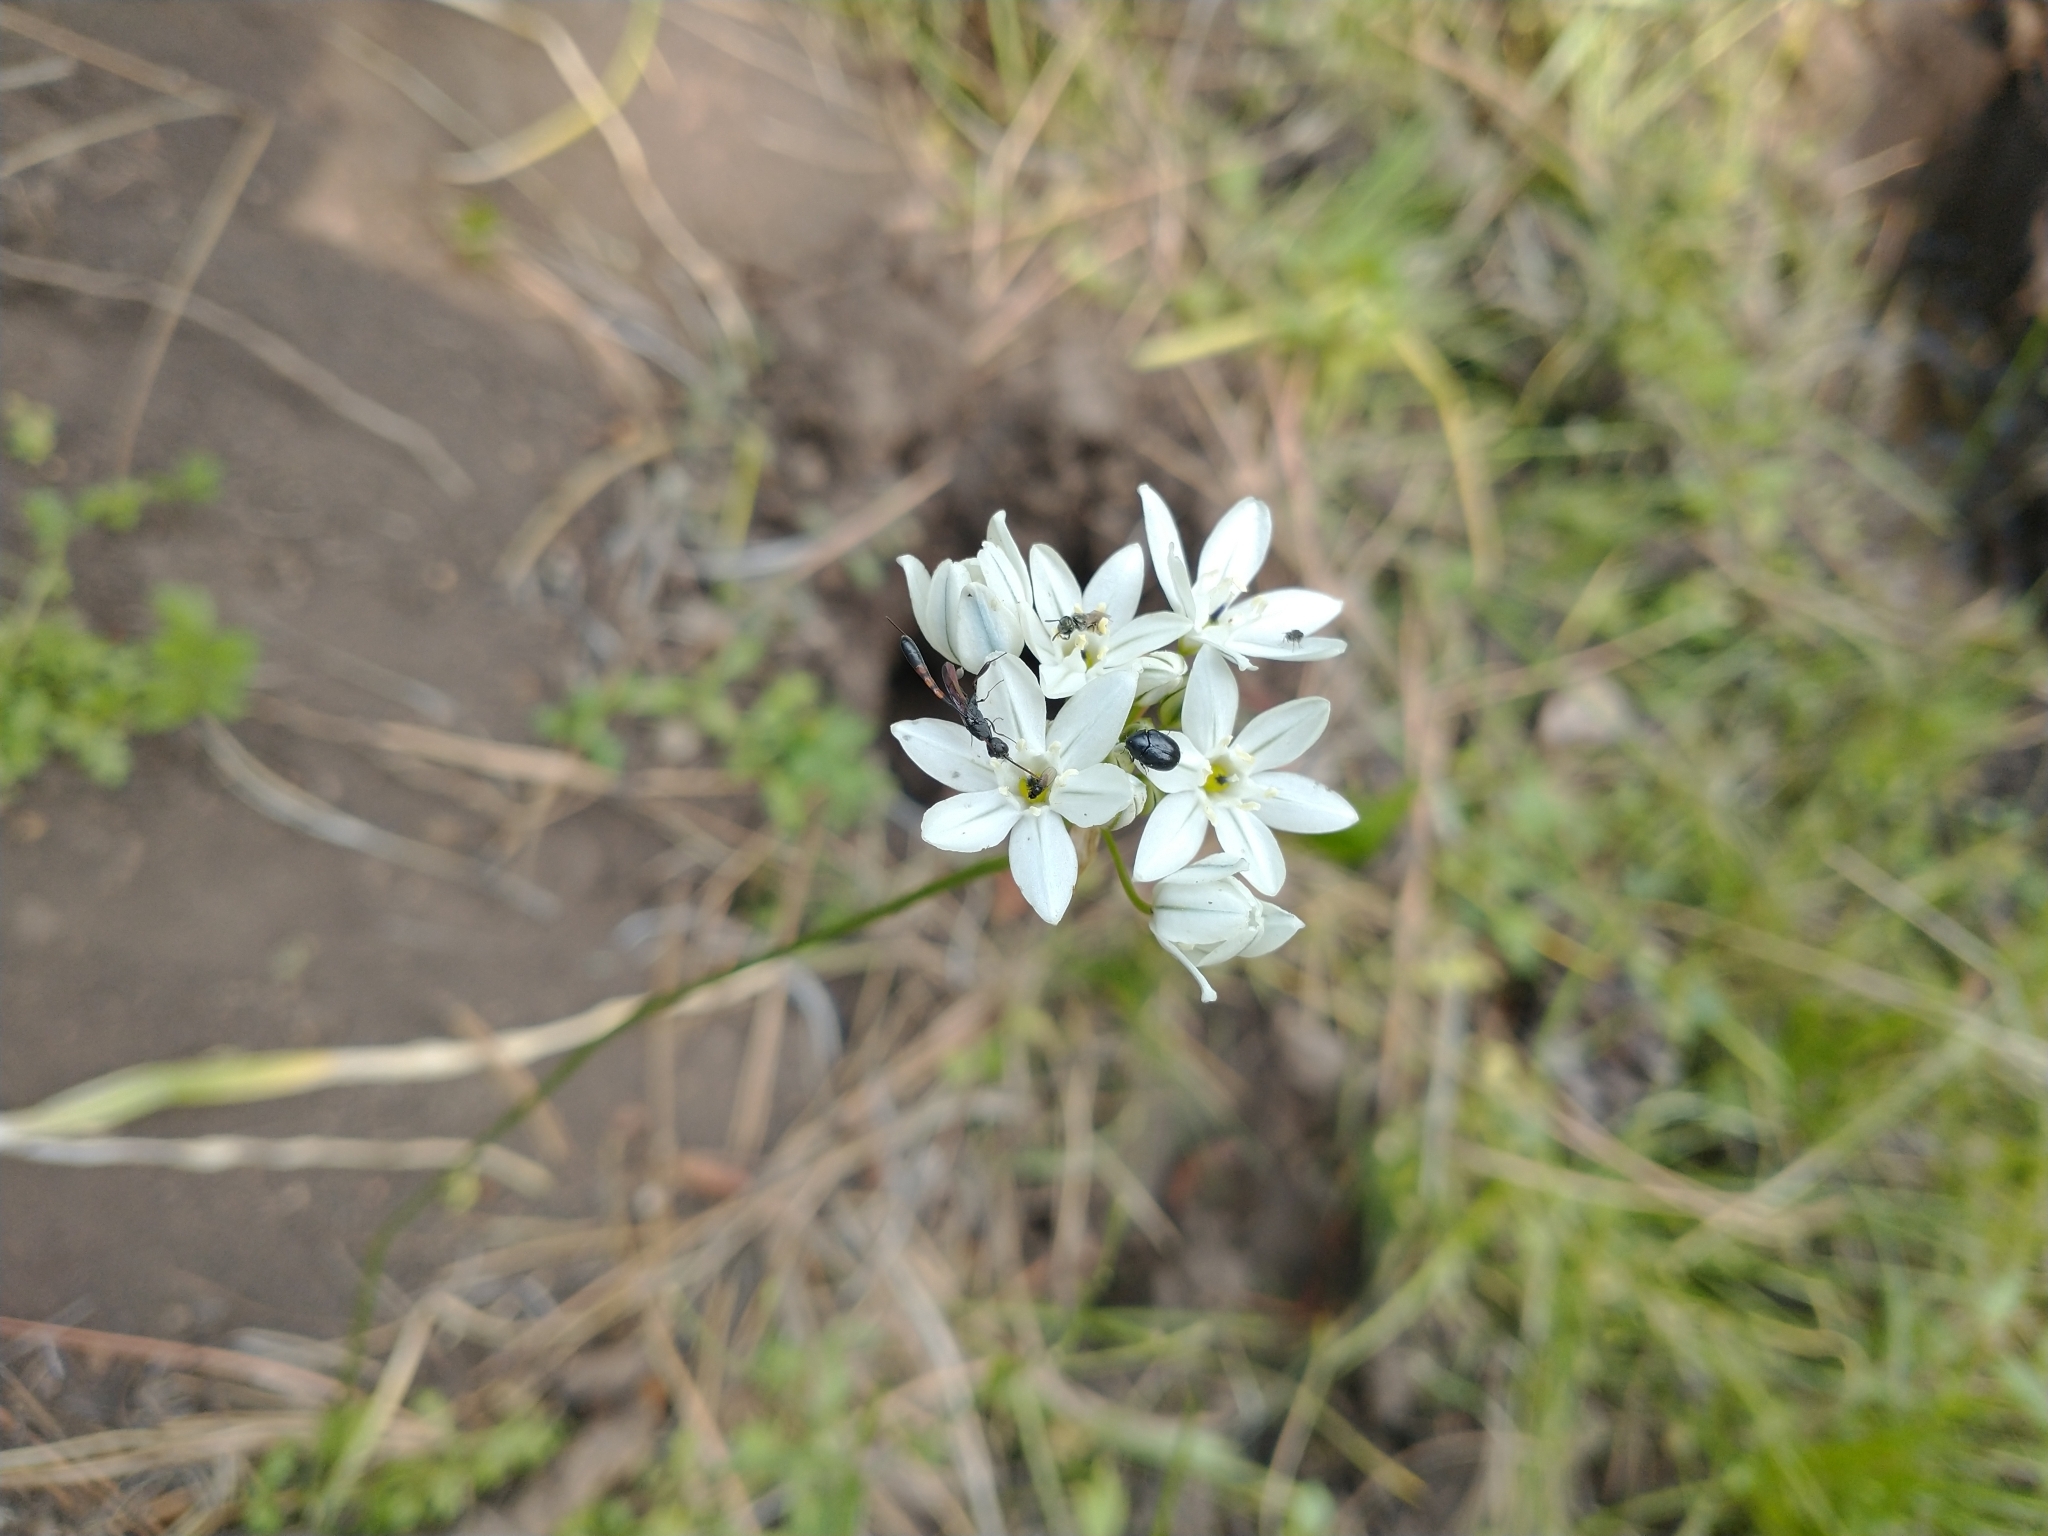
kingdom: Plantae
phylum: Tracheophyta
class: Liliopsida
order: Asparagales
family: Asparagaceae
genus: Triteleia
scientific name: Triteleia hyacinthina
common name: White brodiaea
